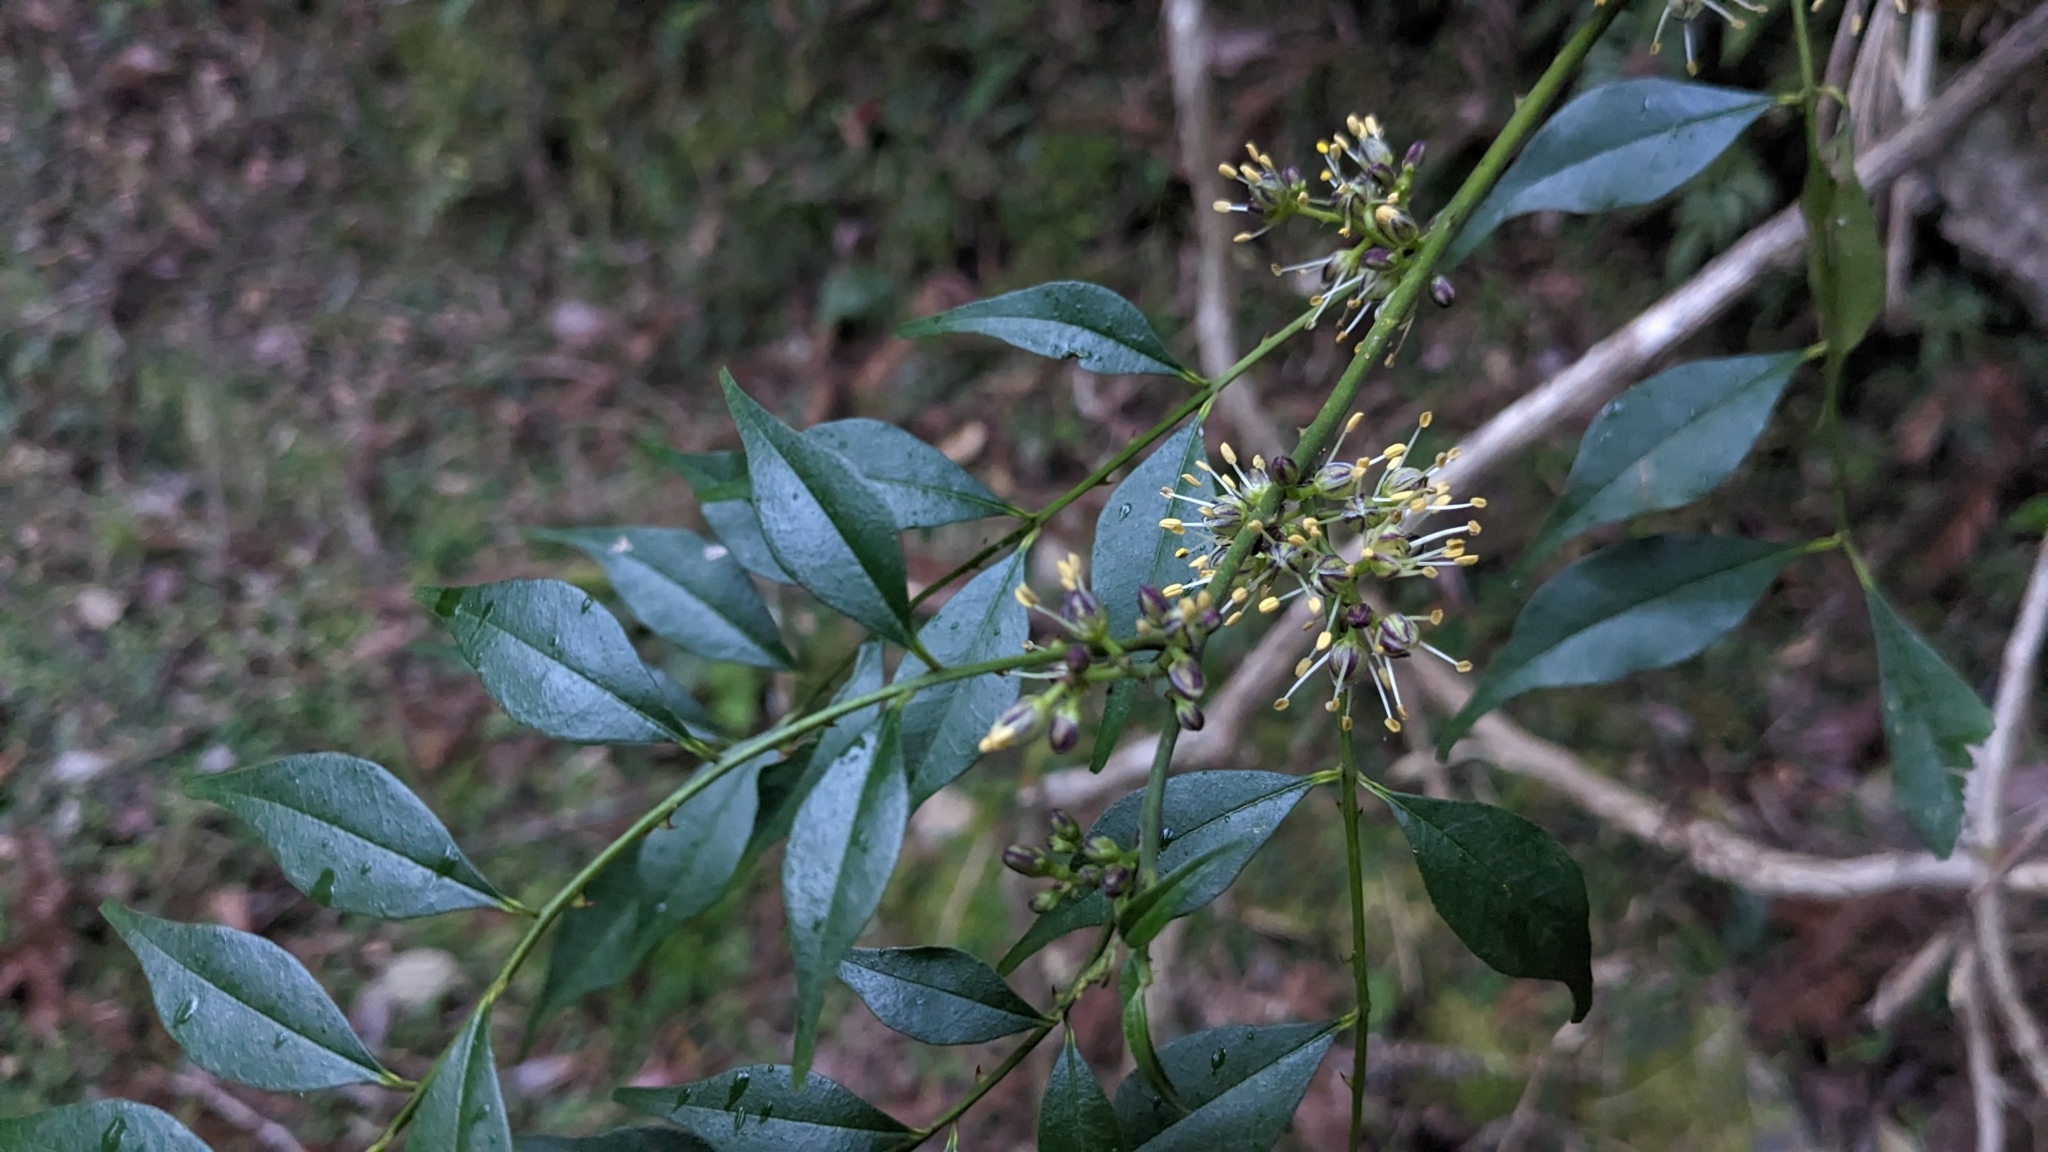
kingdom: Plantae
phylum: Tracheophyta
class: Magnoliopsida
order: Sapindales
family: Rutaceae
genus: Zanthoxylum
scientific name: Zanthoxylum scandens
